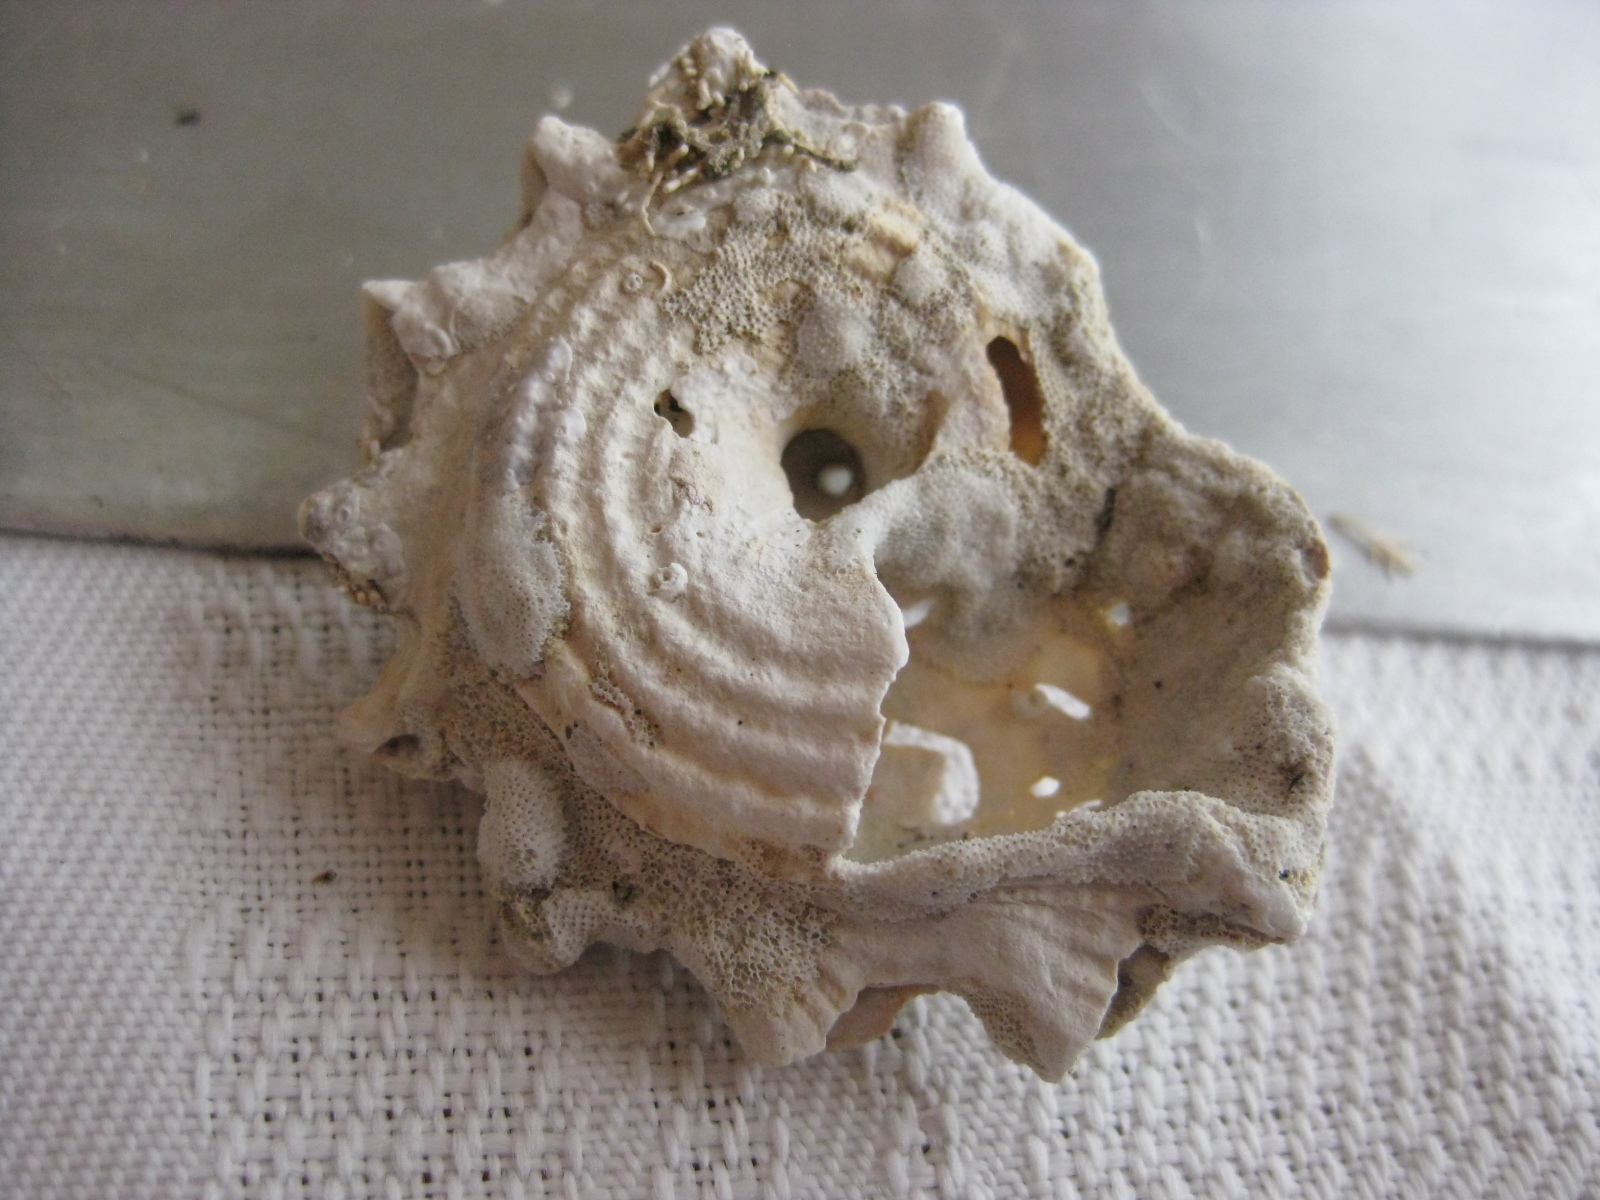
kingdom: Animalia
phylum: Mollusca
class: Gastropoda
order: Trochida
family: Turbinidae
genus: Astraea
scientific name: Astraea heliotropium
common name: Sun shell
